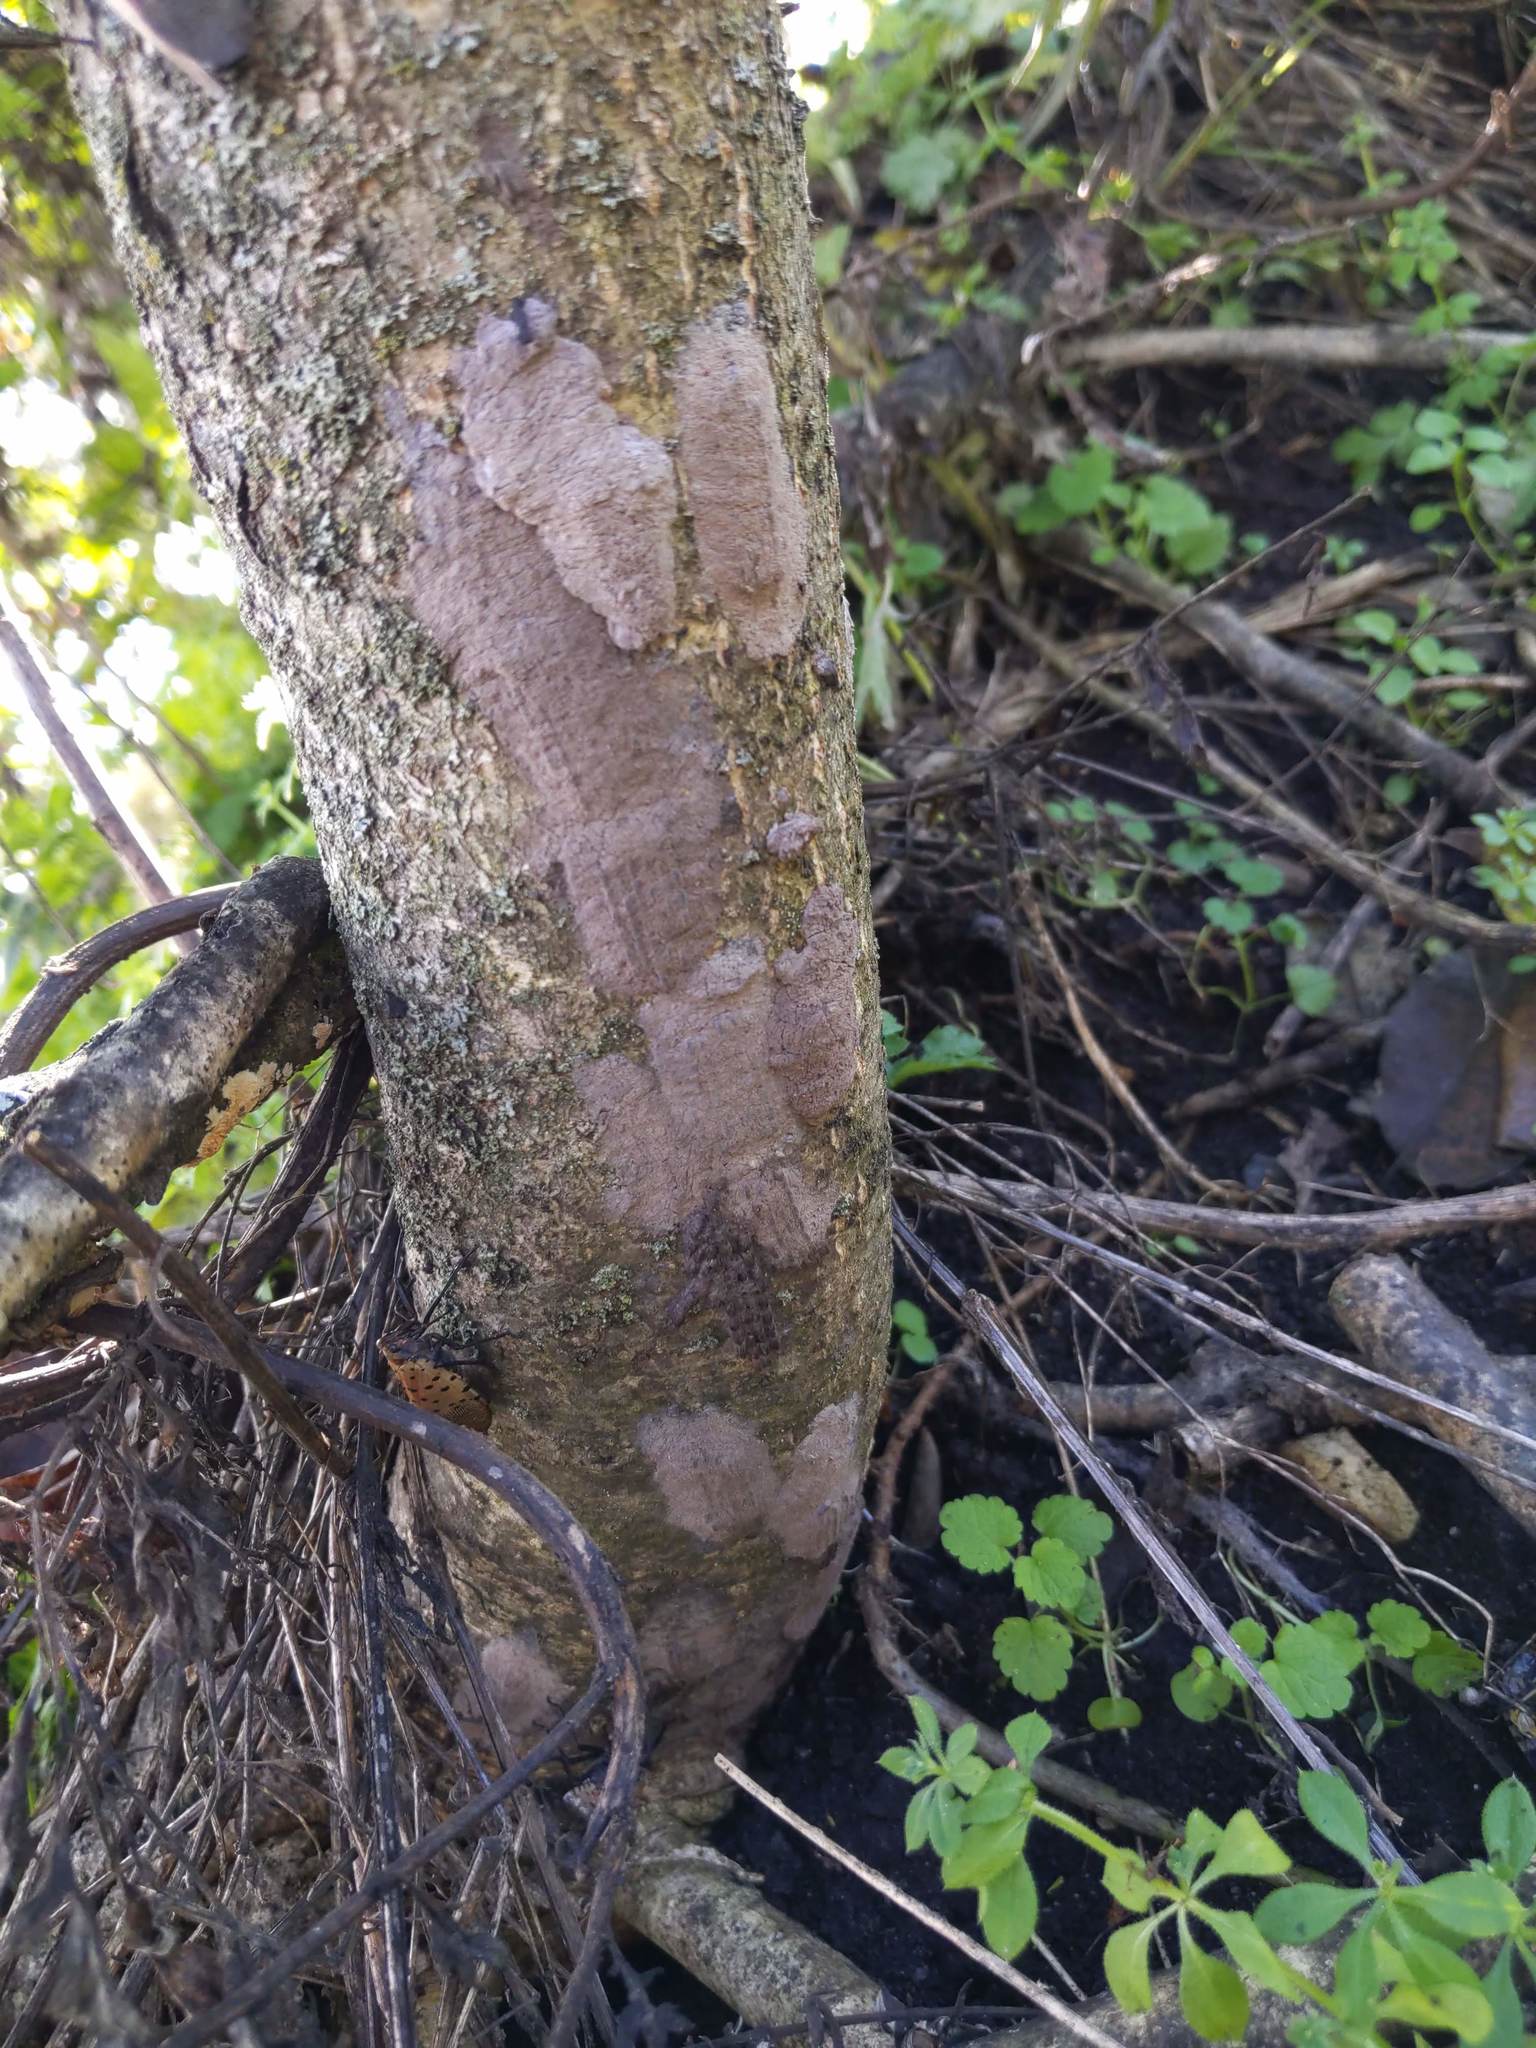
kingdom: Animalia
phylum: Arthropoda
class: Insecta
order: Hemiptera
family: Fulgoridae
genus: Lycorma
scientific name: Lycorma delicatula
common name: Spotted lanternfly
